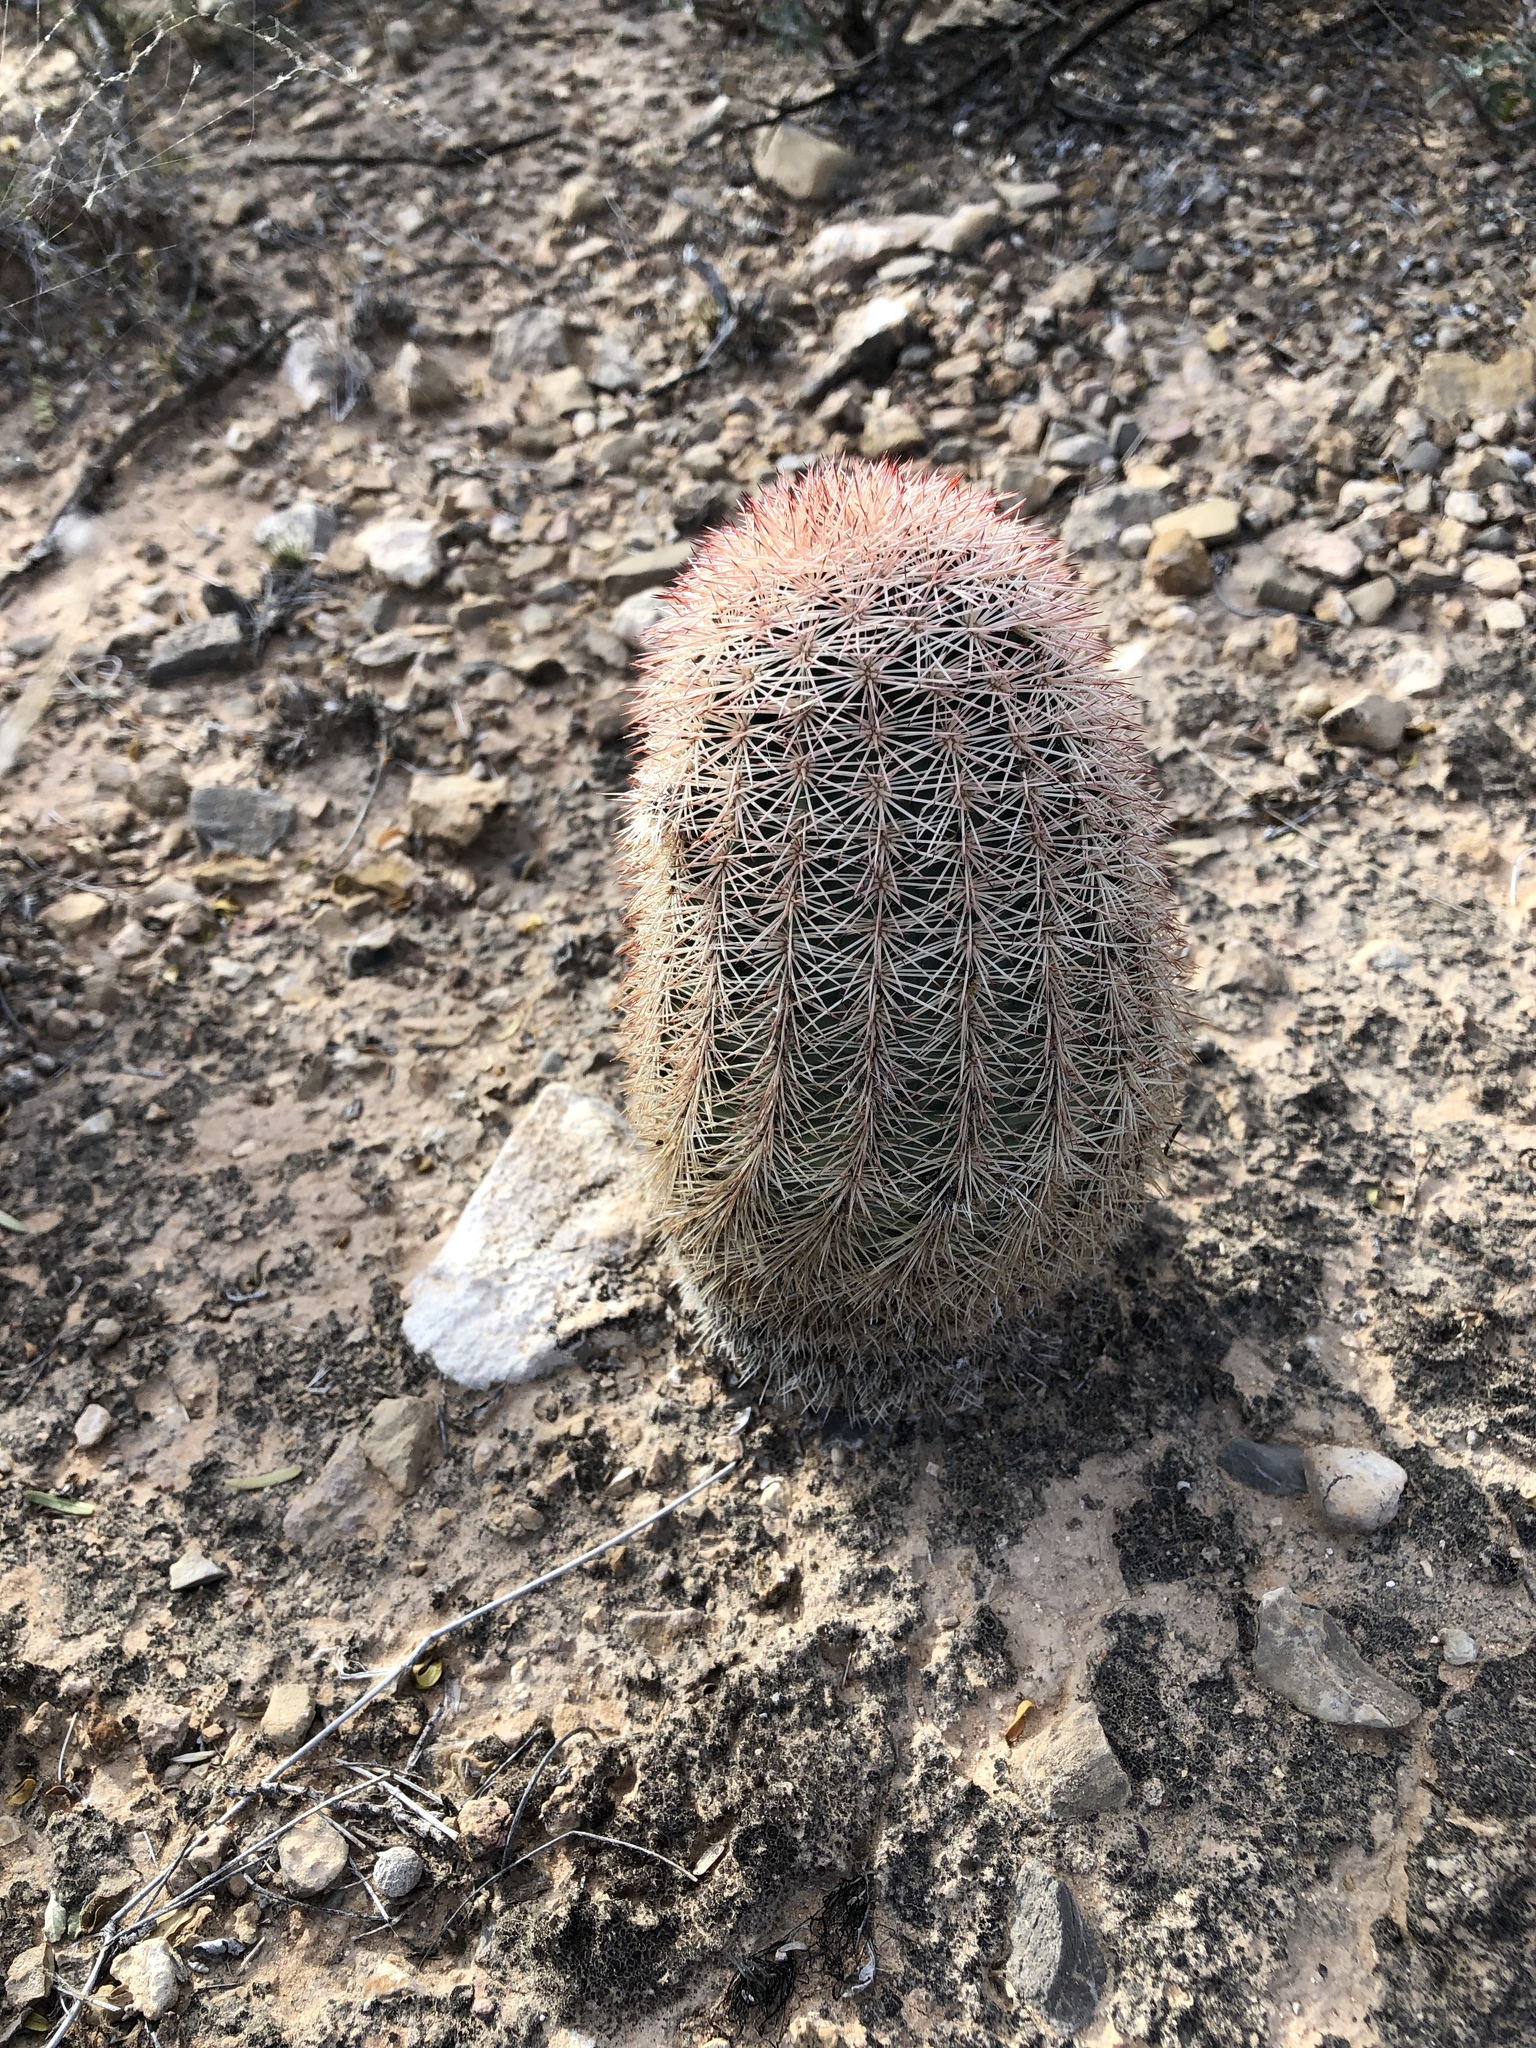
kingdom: Plantae
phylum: Tracheophyta
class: Magnoliopsida
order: Caryophyllales
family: Cactaceae
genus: Echinocereus
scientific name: Echinocereus dasyacanthus
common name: Spiny hedgehog cactus
